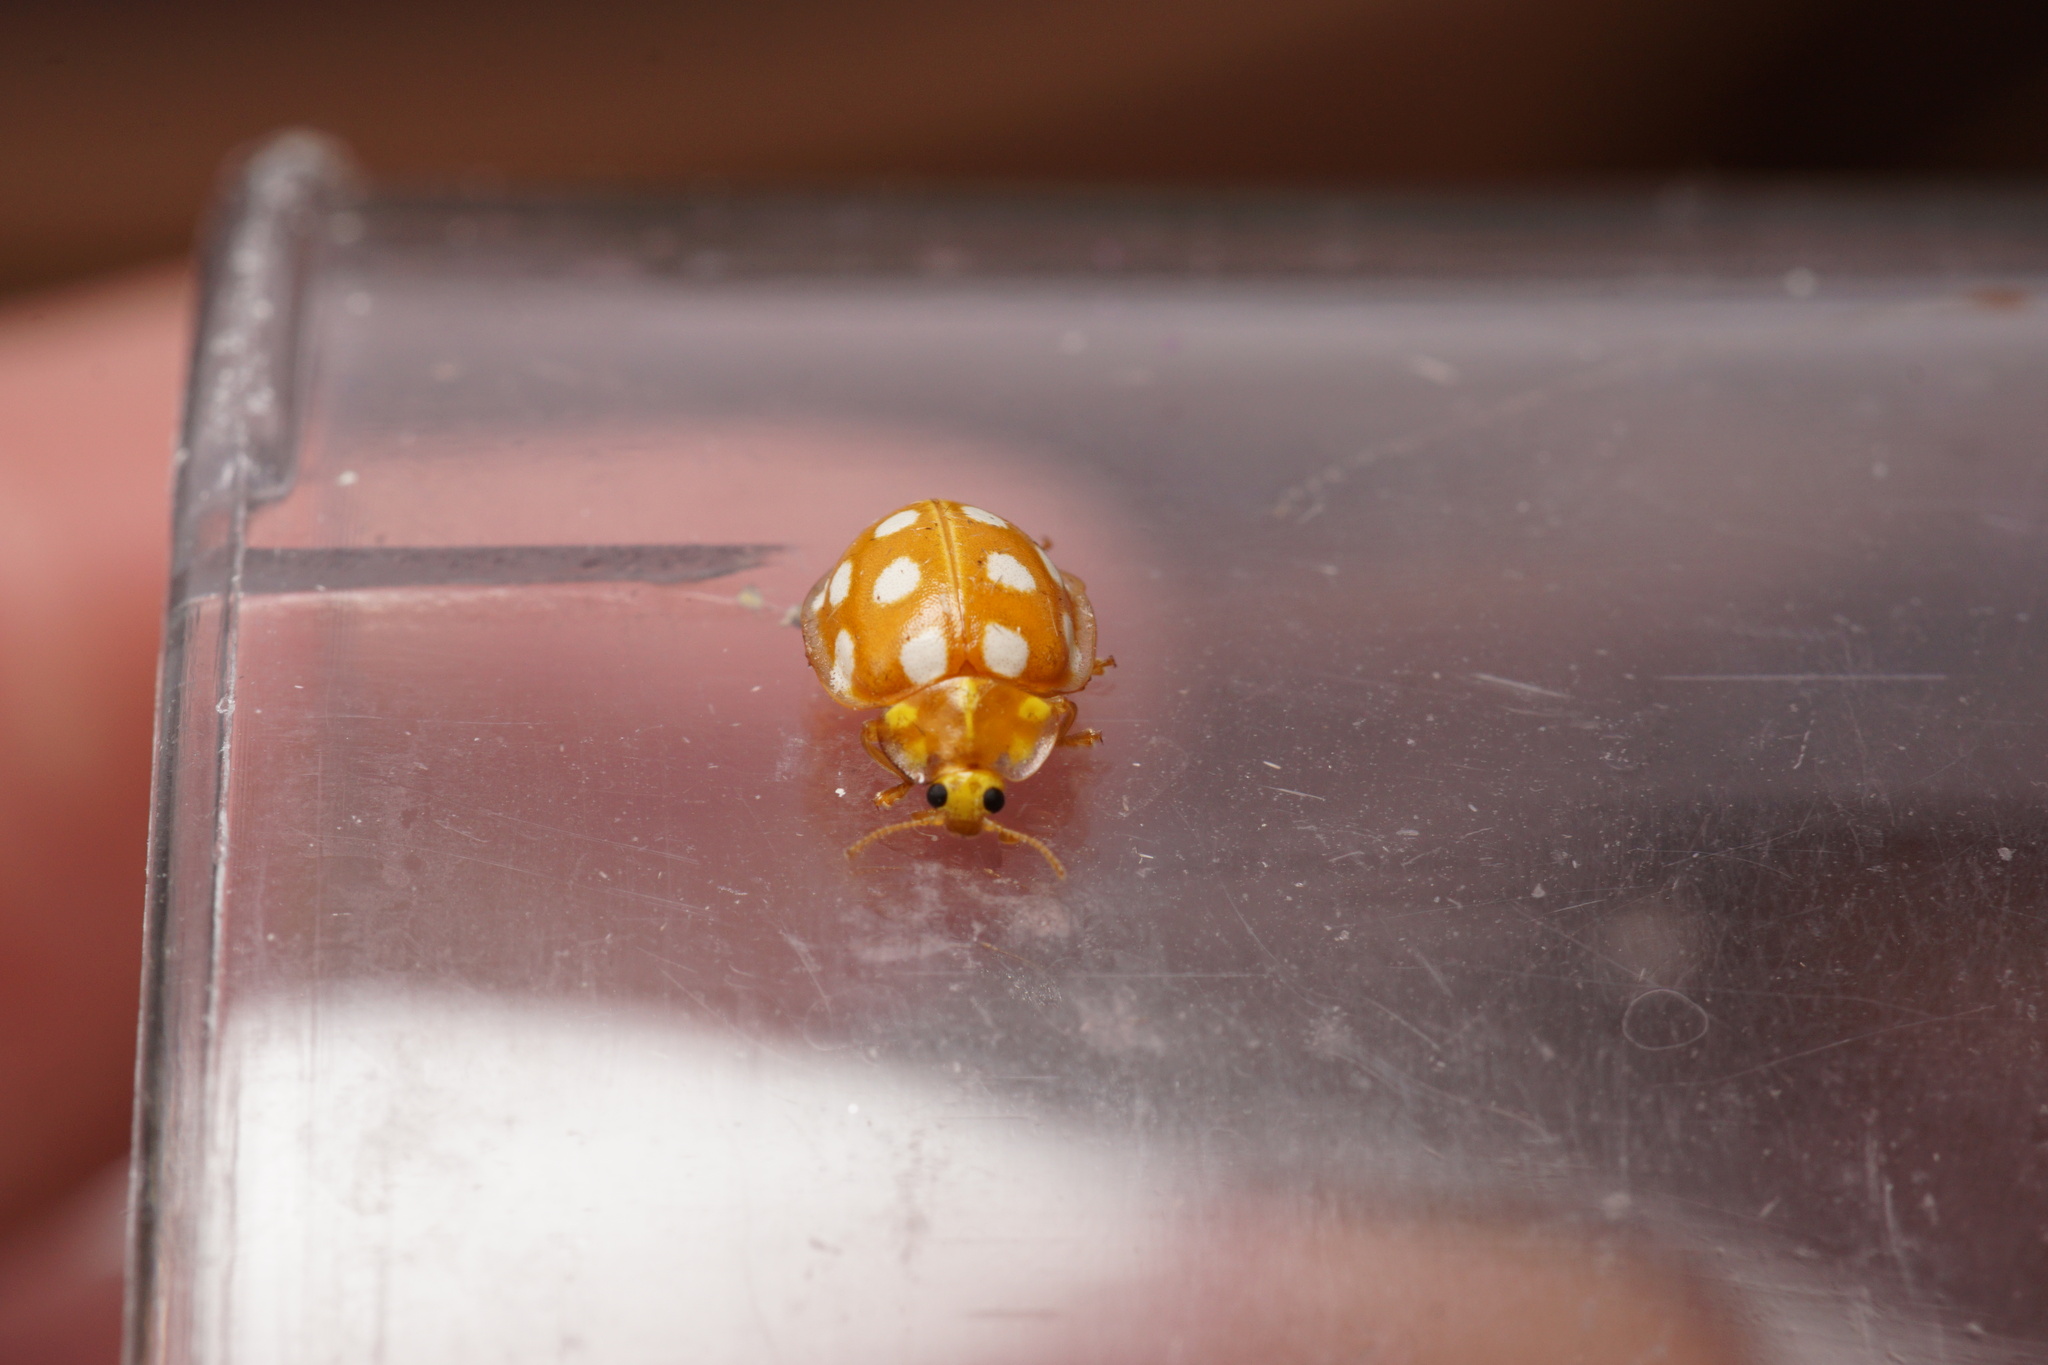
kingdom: Animalia
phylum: Arthropoda
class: Insecta
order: Coleoptera
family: Coccinellidae
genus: Halyzia
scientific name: Halyzia sedecimguttata
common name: Orange ladybird
